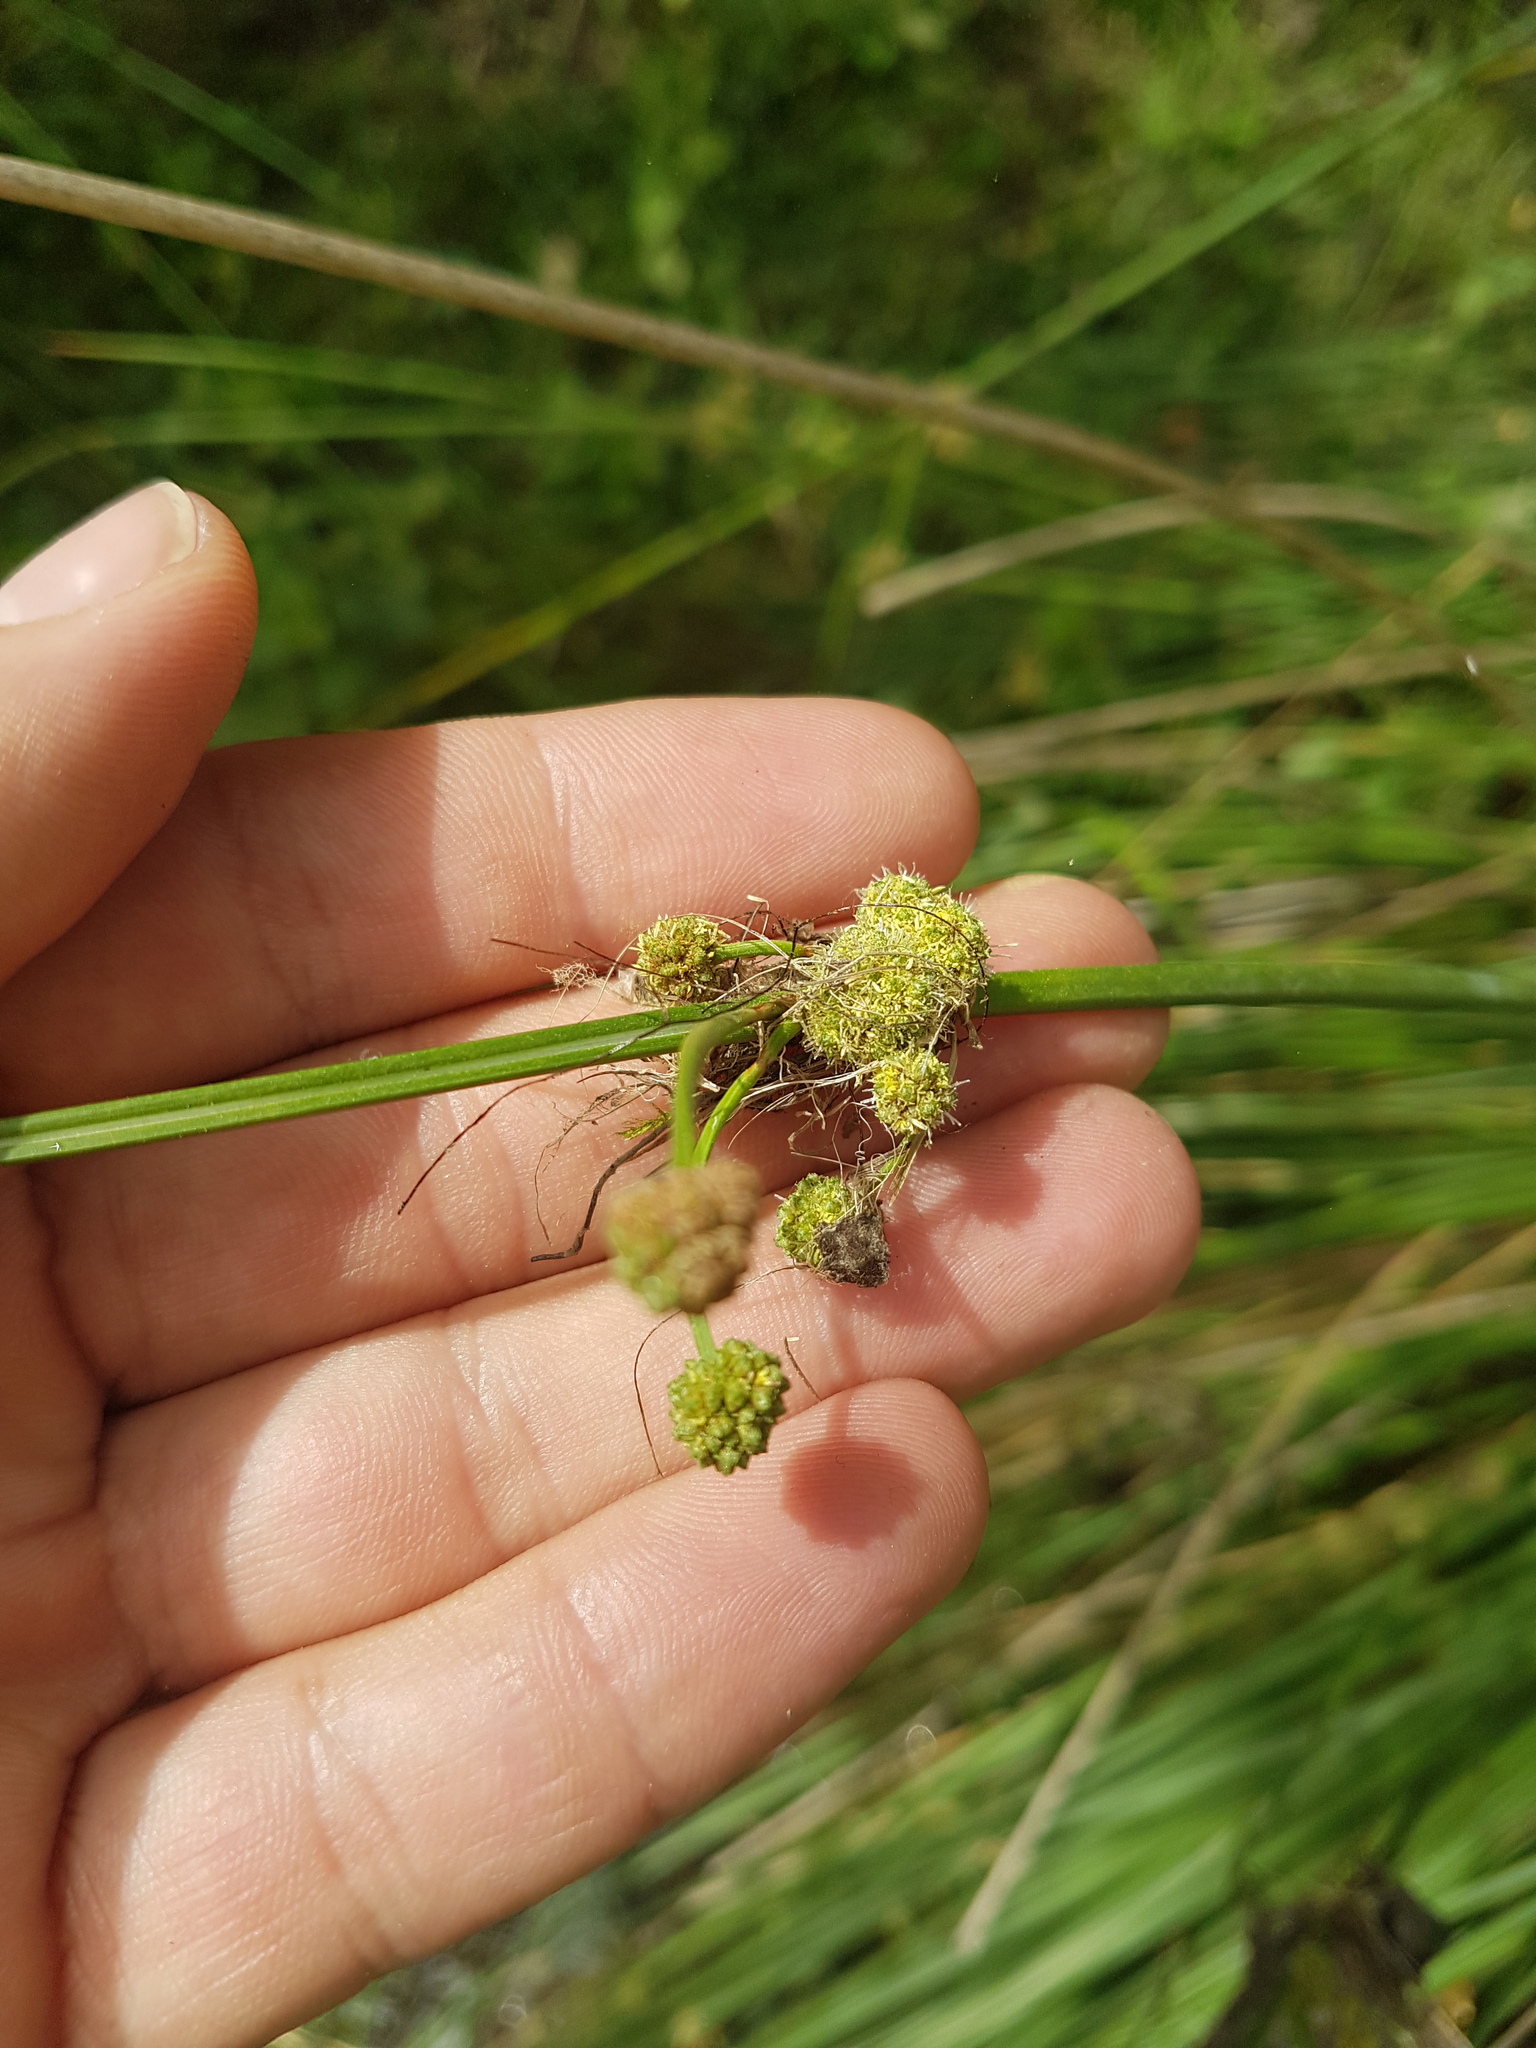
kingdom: Plantae
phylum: Tracheophyta
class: Liliopsida
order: Poales
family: Cyperaceae
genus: Scirpoides
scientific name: Scirpoides holoschoenus
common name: Round-headed club-rush
